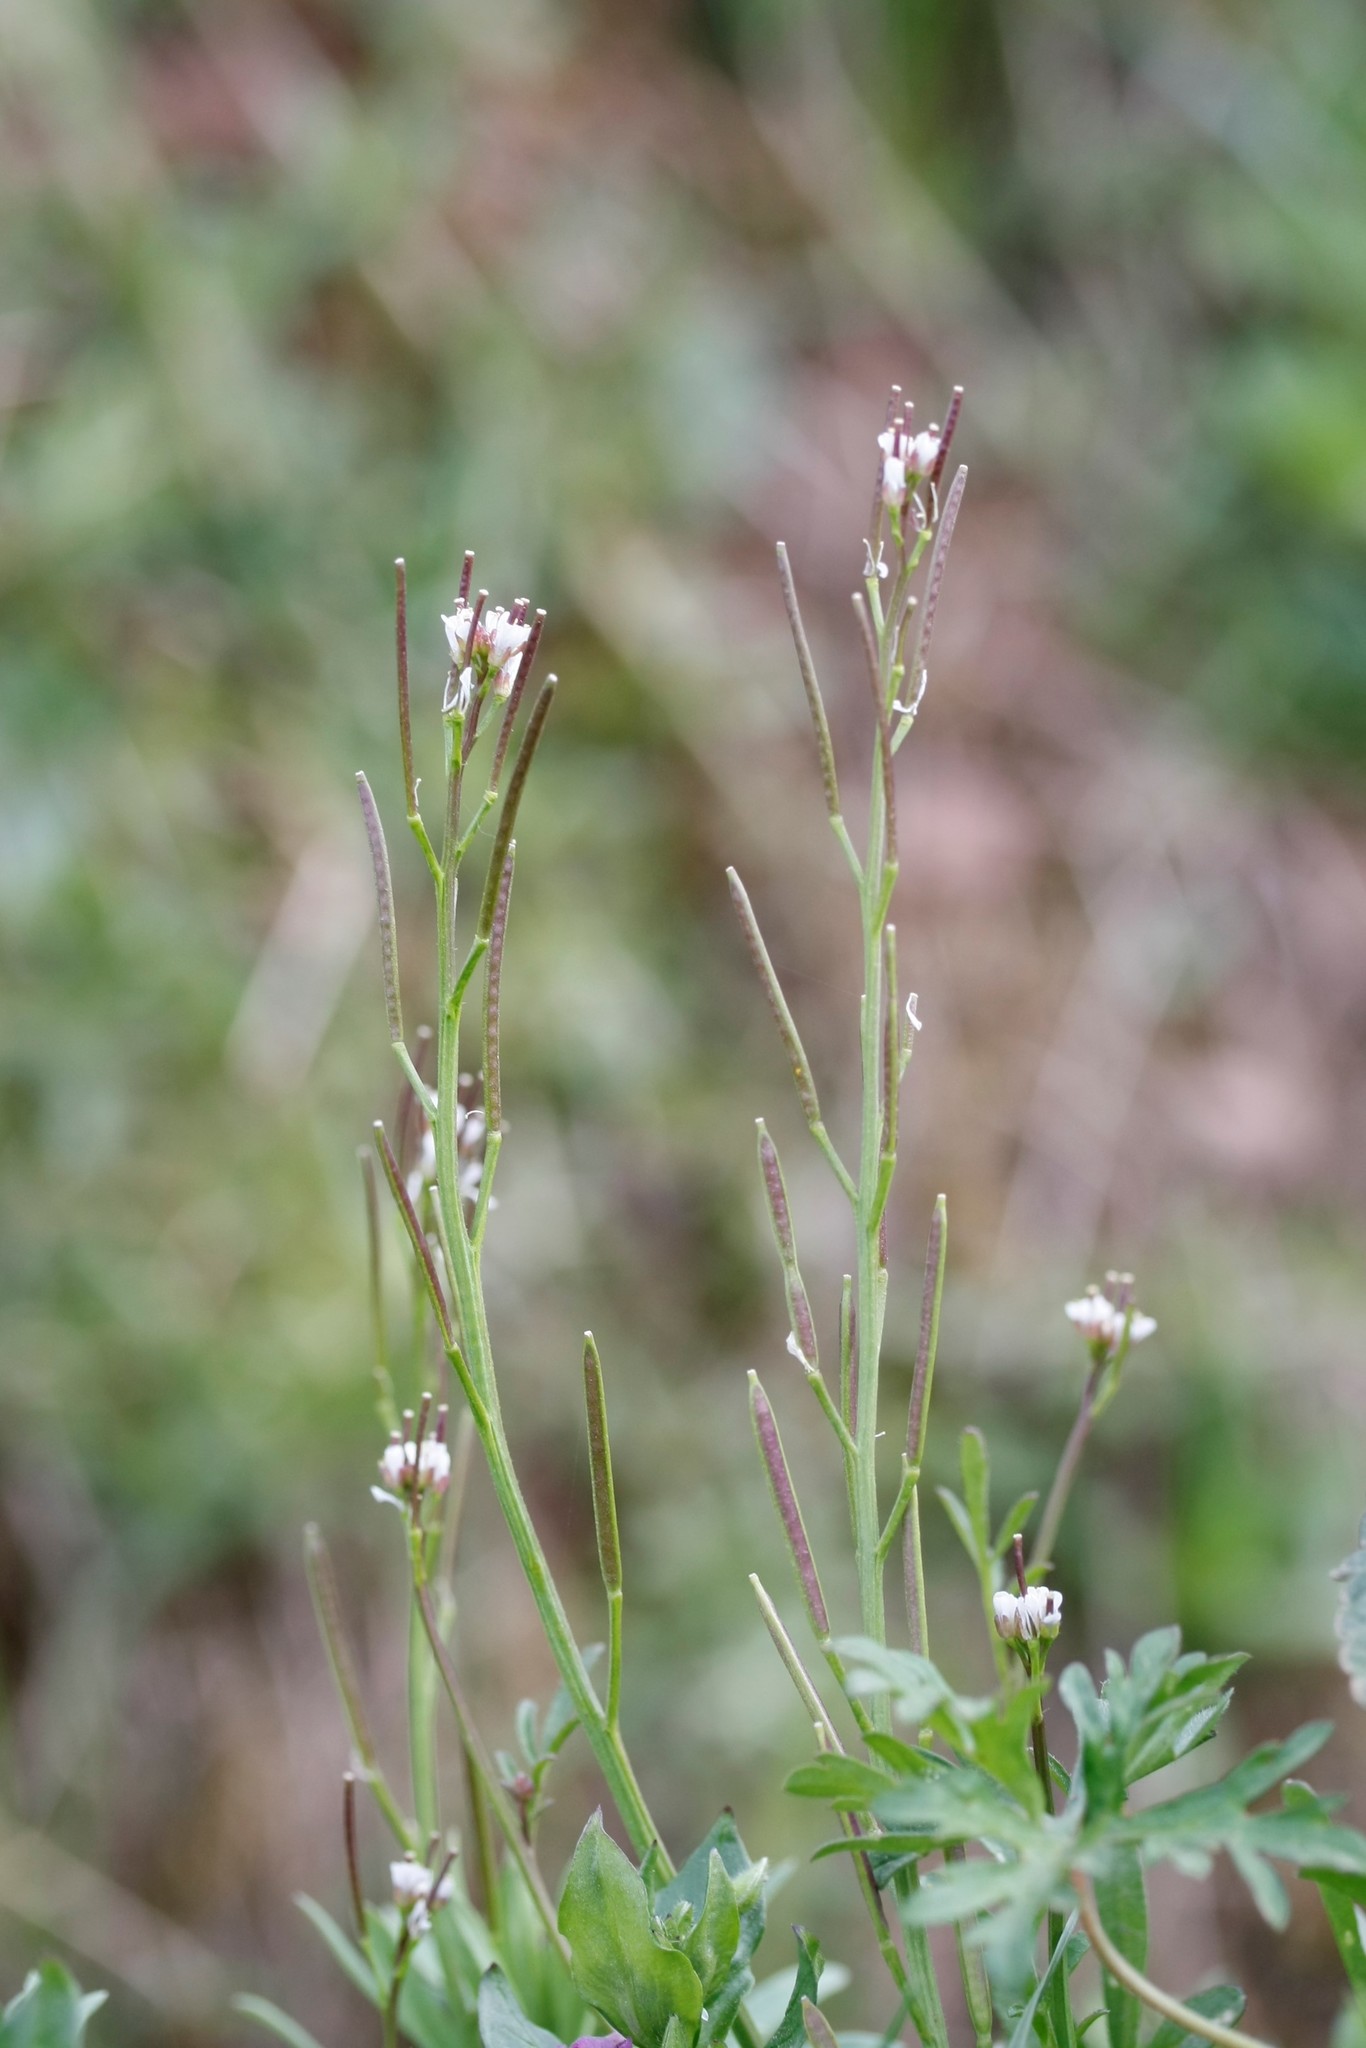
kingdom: Plantae
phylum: Tracheophyta
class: Magnoliopsida
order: Brassicales
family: Brassicaceae
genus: Cardamine
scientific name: Cardamine hirsuta
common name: Hairy bittercress
